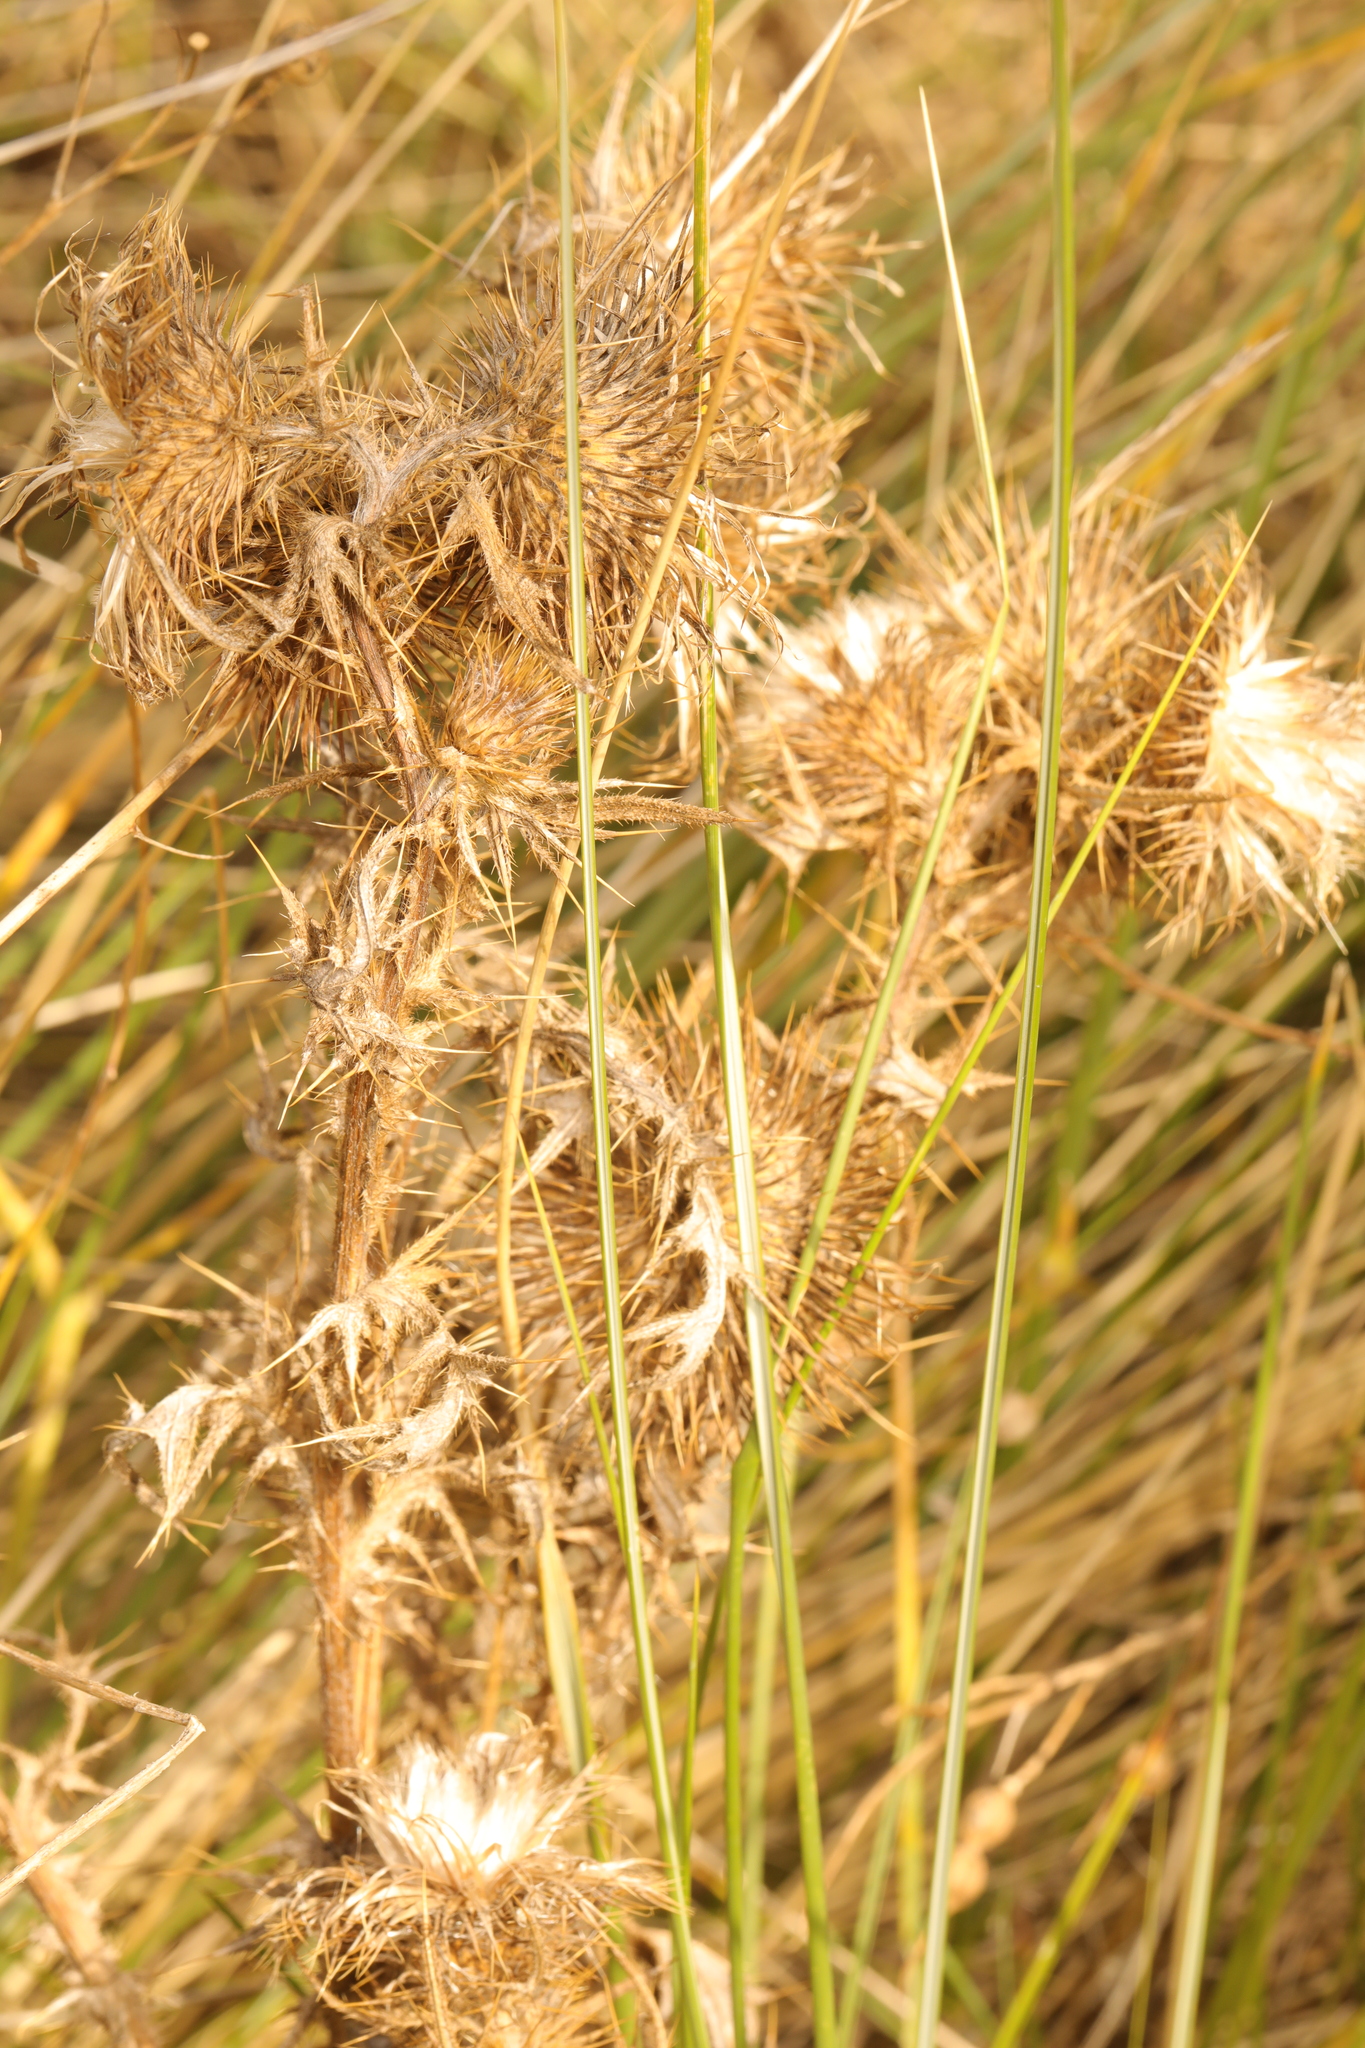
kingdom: Plantae
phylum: Tracheophyta
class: Magnoliopsida
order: Asterales
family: Asteraceae
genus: Cirsium
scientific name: Cirsium vulgare
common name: Bull thistle
